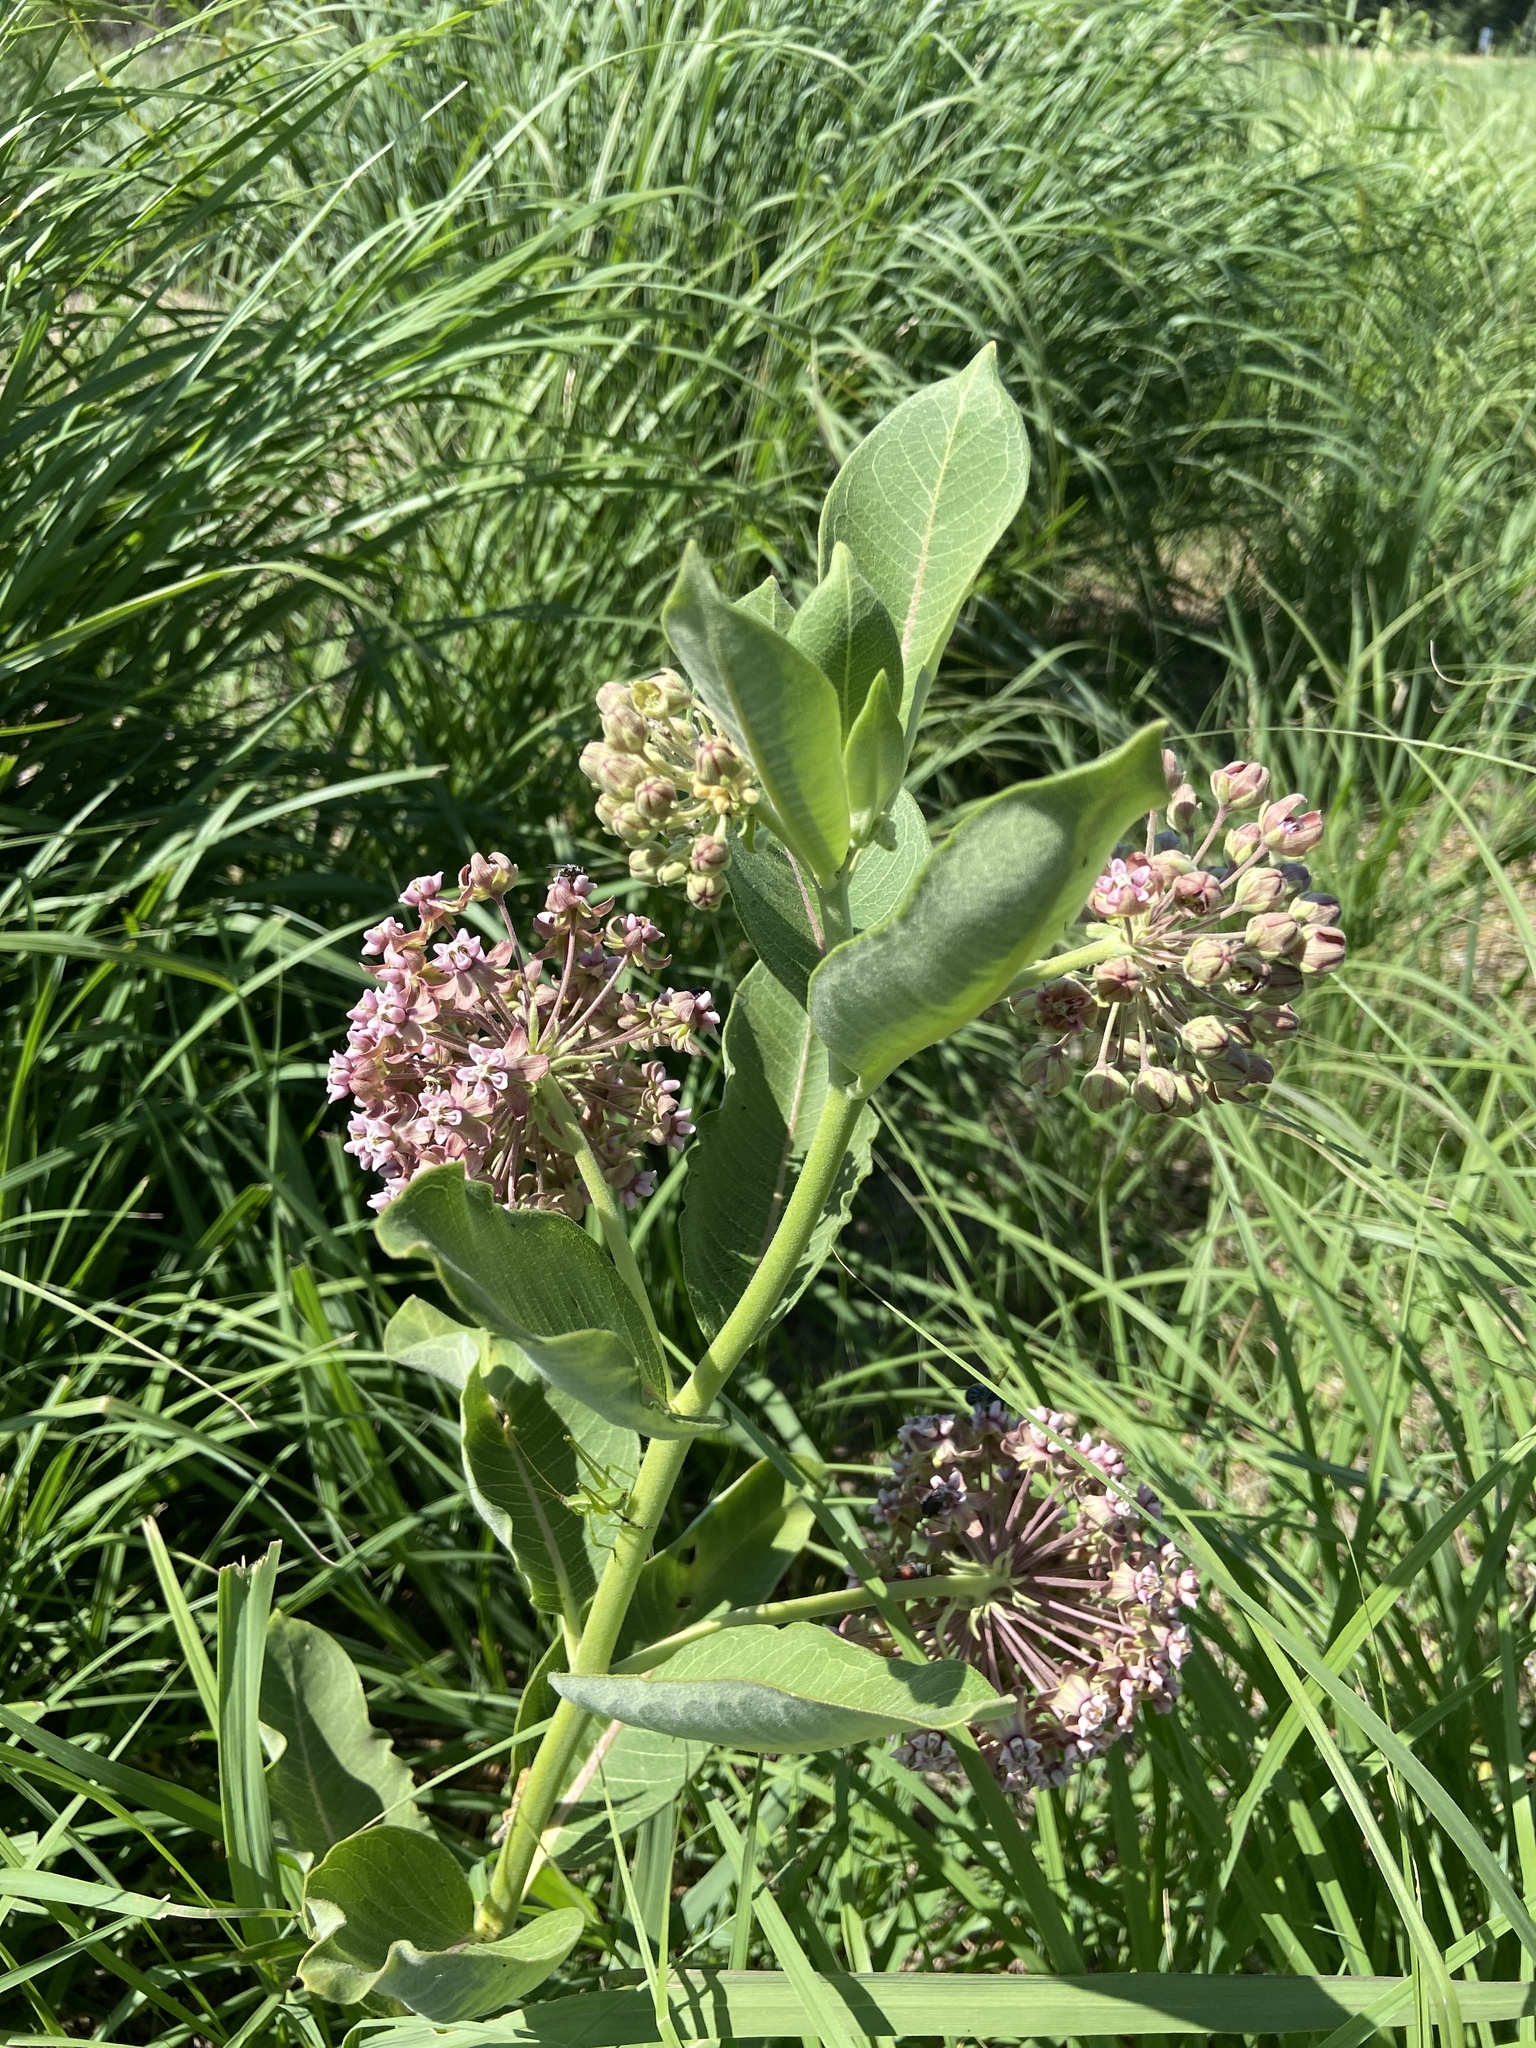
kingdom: Plantae
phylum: Tracheophyta
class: Magnoliopsida
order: Gentianales
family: Apocynaceae
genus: Asclepias
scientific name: Asclepias syriaca
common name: Common milkweed
